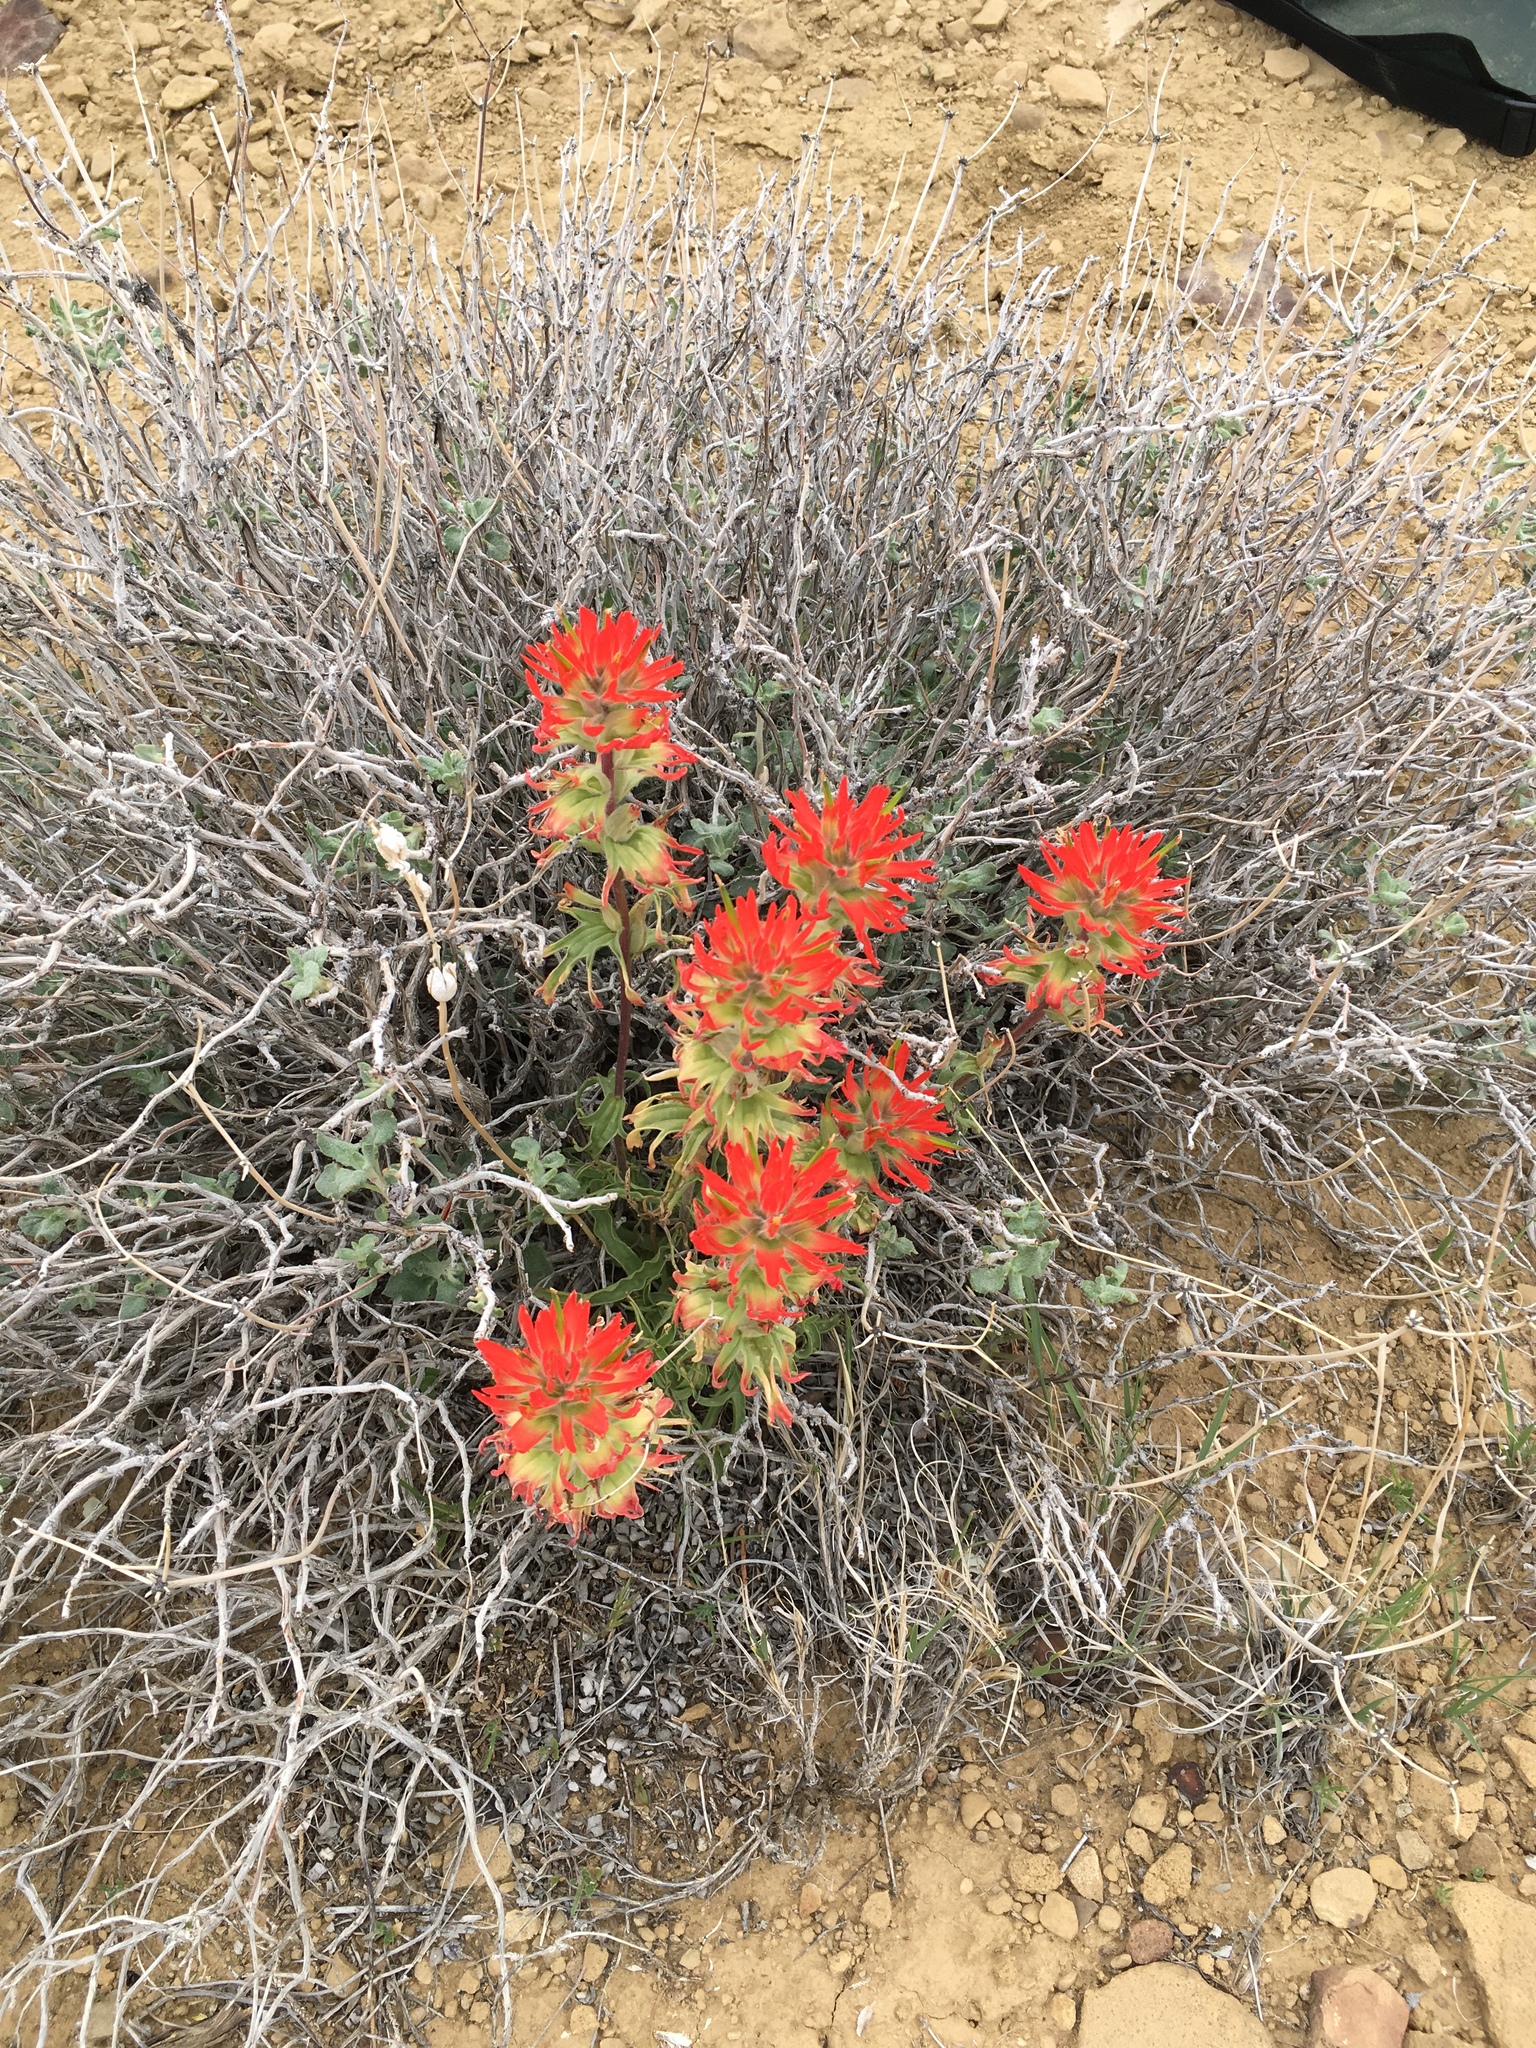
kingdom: Plantae
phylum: Tracheophyta
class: Magnoliopsida
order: Lamiales
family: Orobanchaceae
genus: Castilleja
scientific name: Castilleja chromosa
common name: Desert paintbrush
